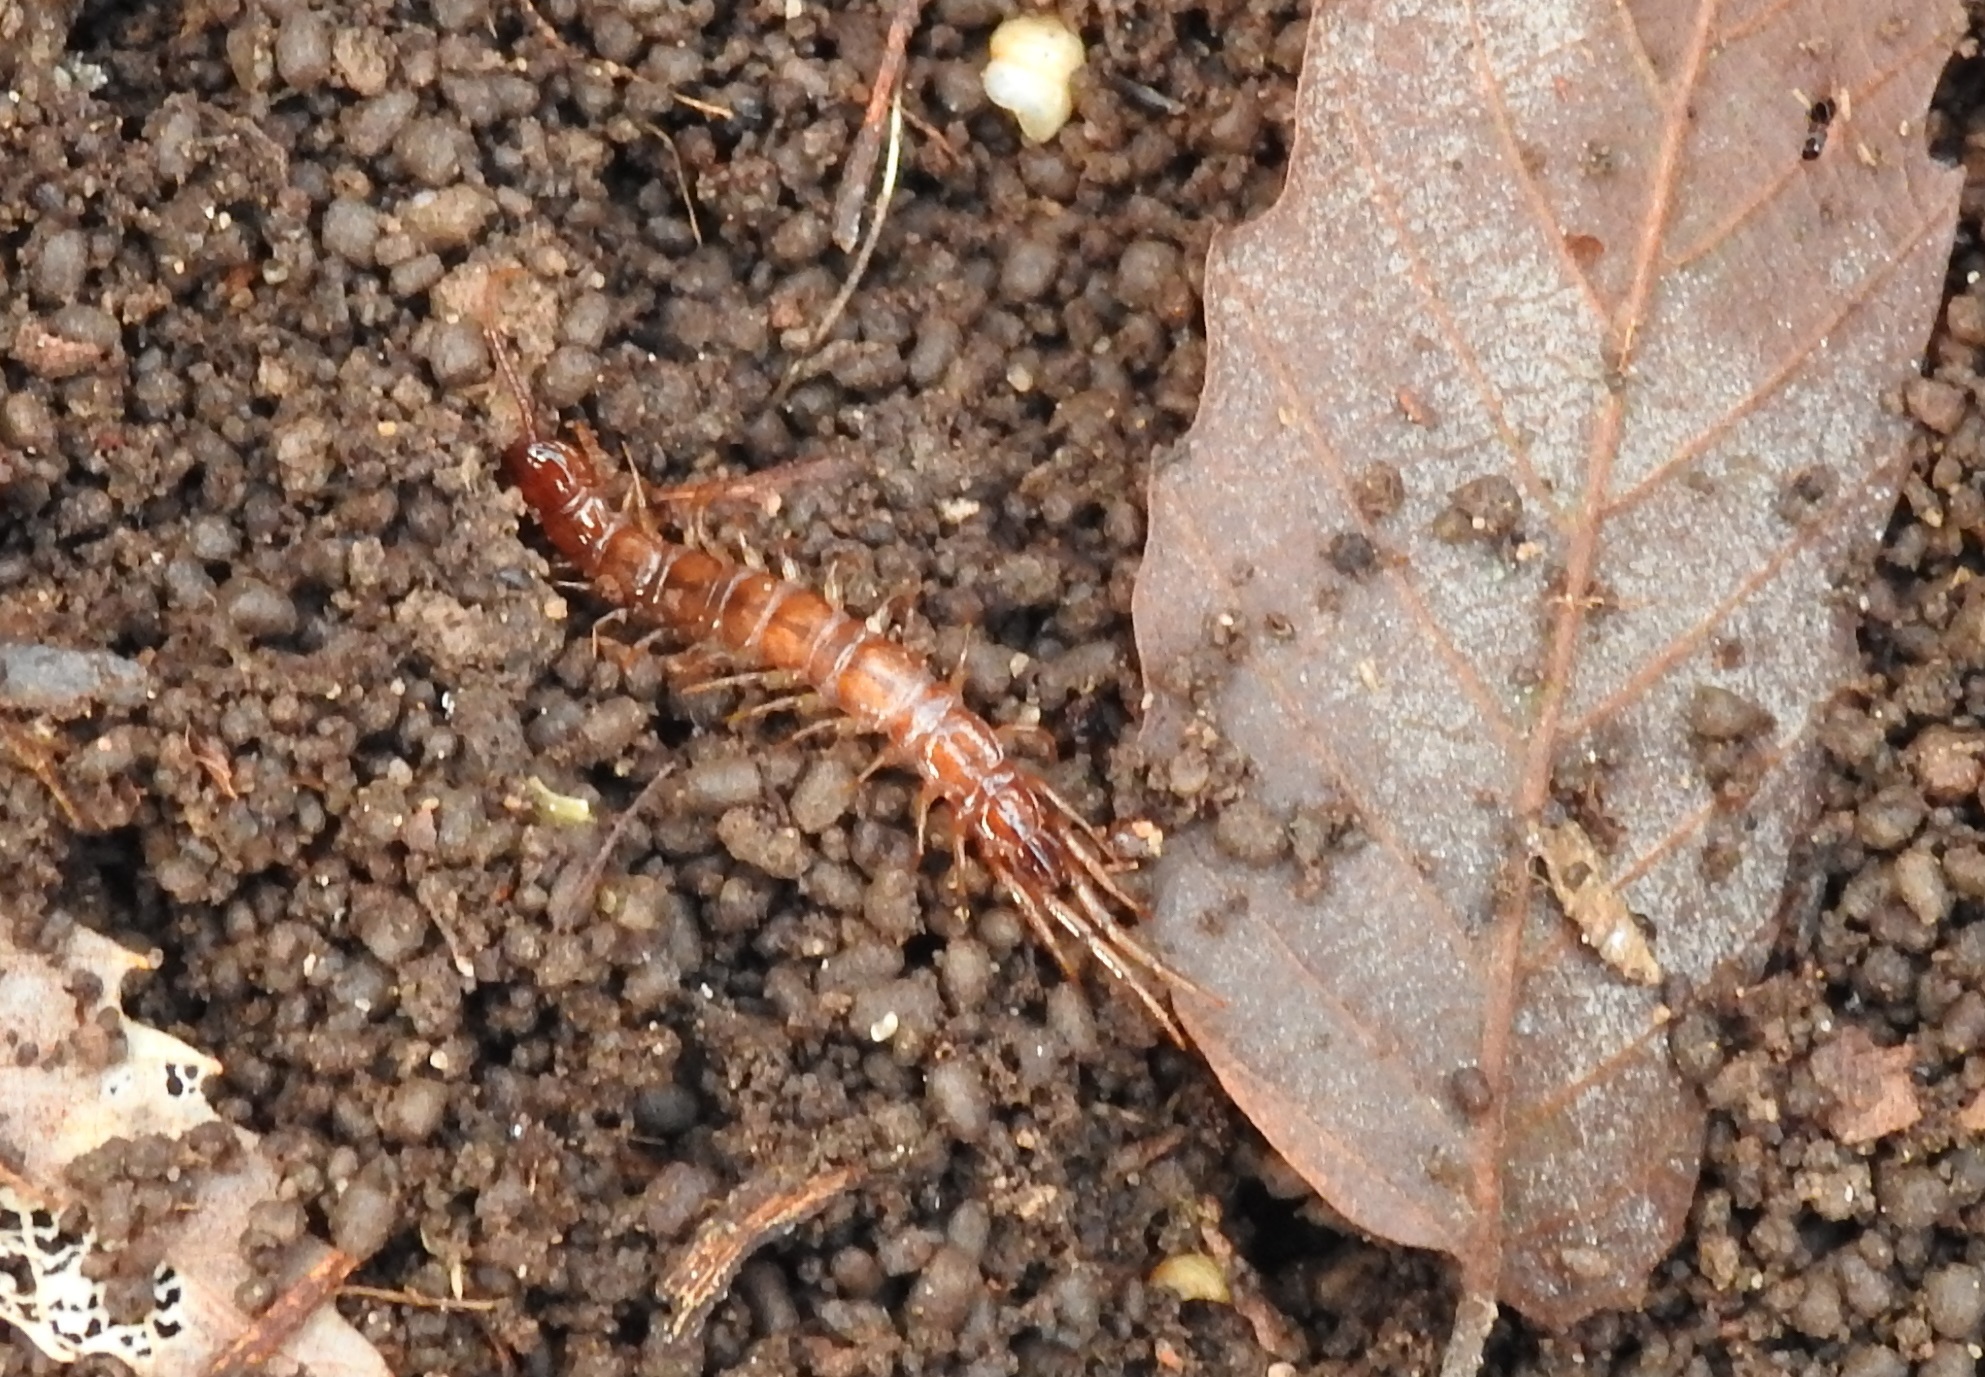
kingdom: Animalia
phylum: Arthropoda
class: Chilopoda
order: Lithobiomorpha
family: Lithobiidae
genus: Lithobius
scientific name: Lithobius forficatus
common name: Centipede
